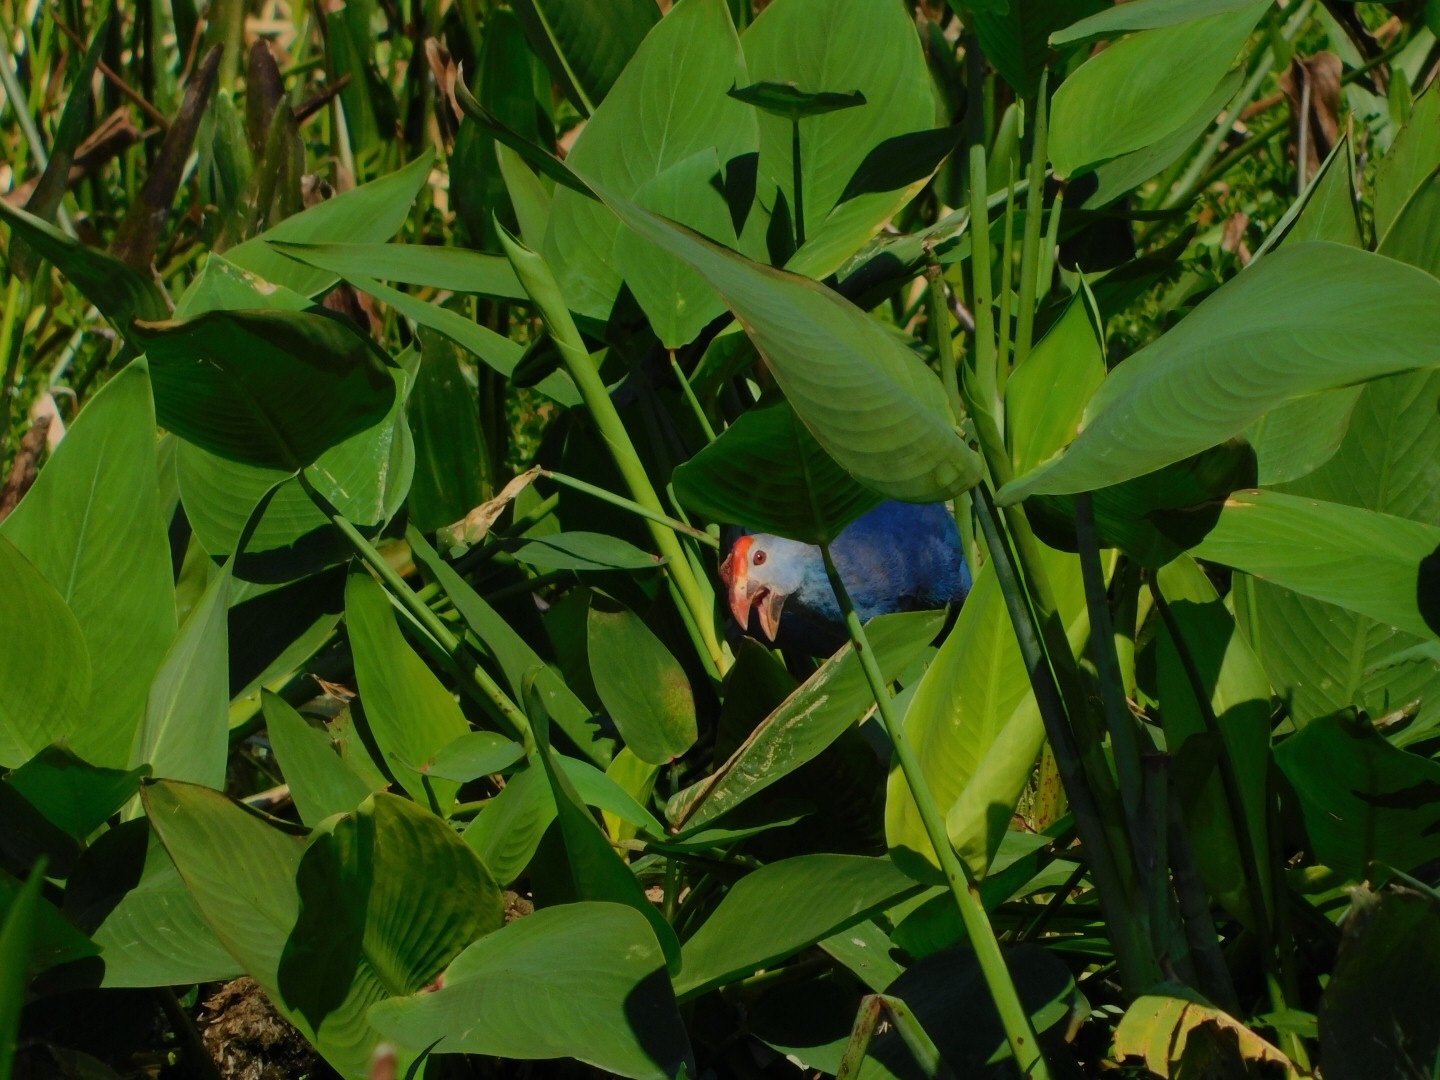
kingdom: Plantae
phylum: Tracheophyta
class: Liliopsida
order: Zingiberales
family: Marantaceae
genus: Thalia
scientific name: Thalia geniculata
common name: Arrowroot
